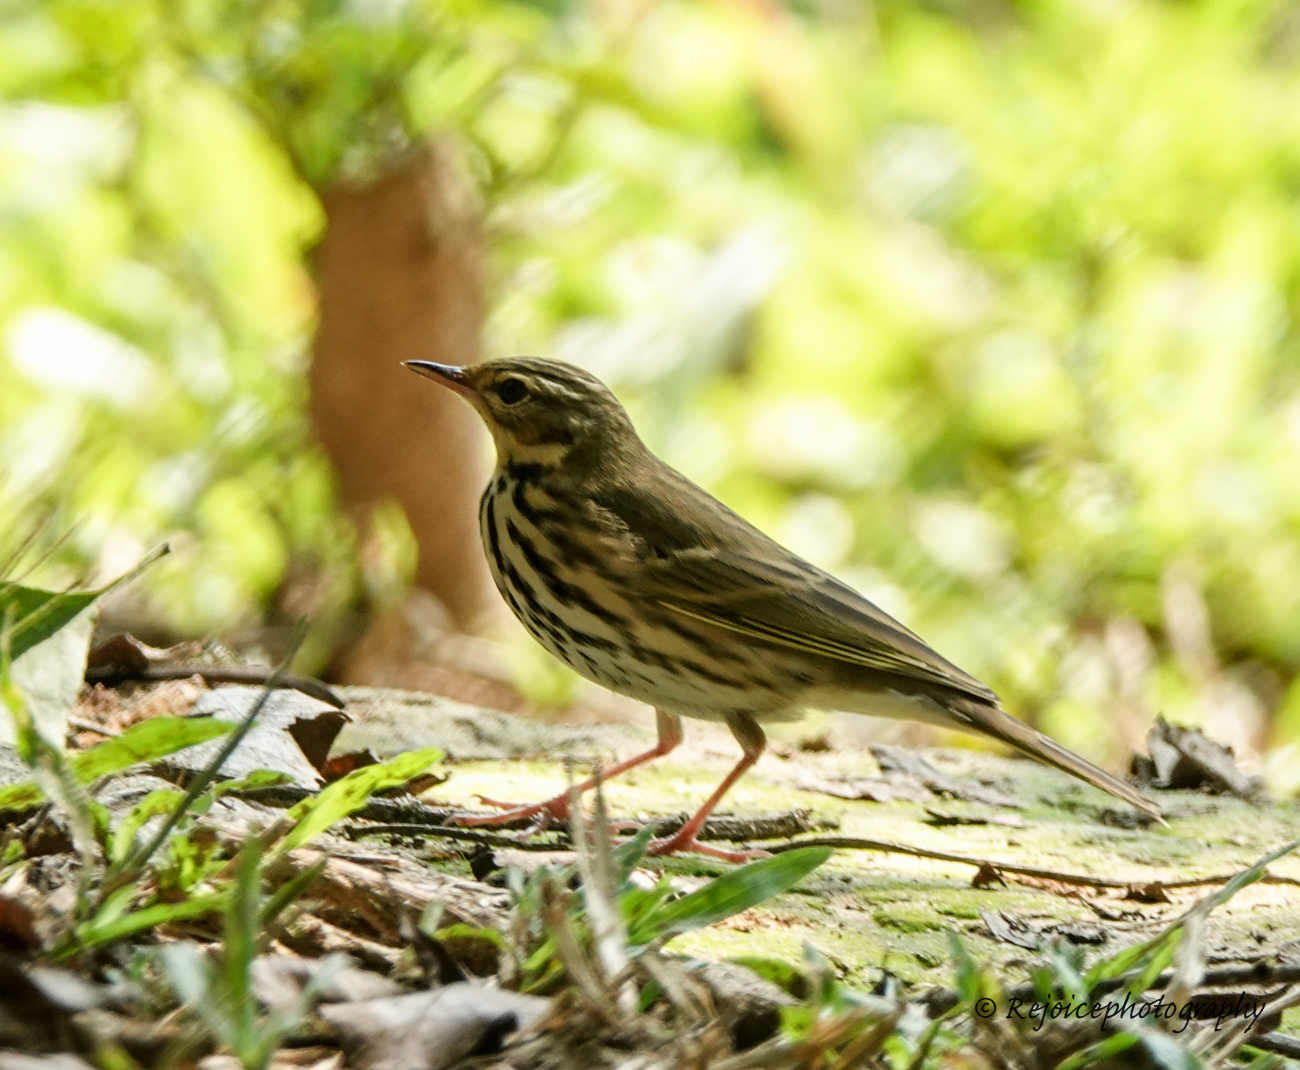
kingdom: Animalia
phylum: Chordata
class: Aves
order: Passeriformes
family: Motacillidae
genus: Anthus
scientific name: Anthus hodgsoni
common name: Olive-backed pipit
